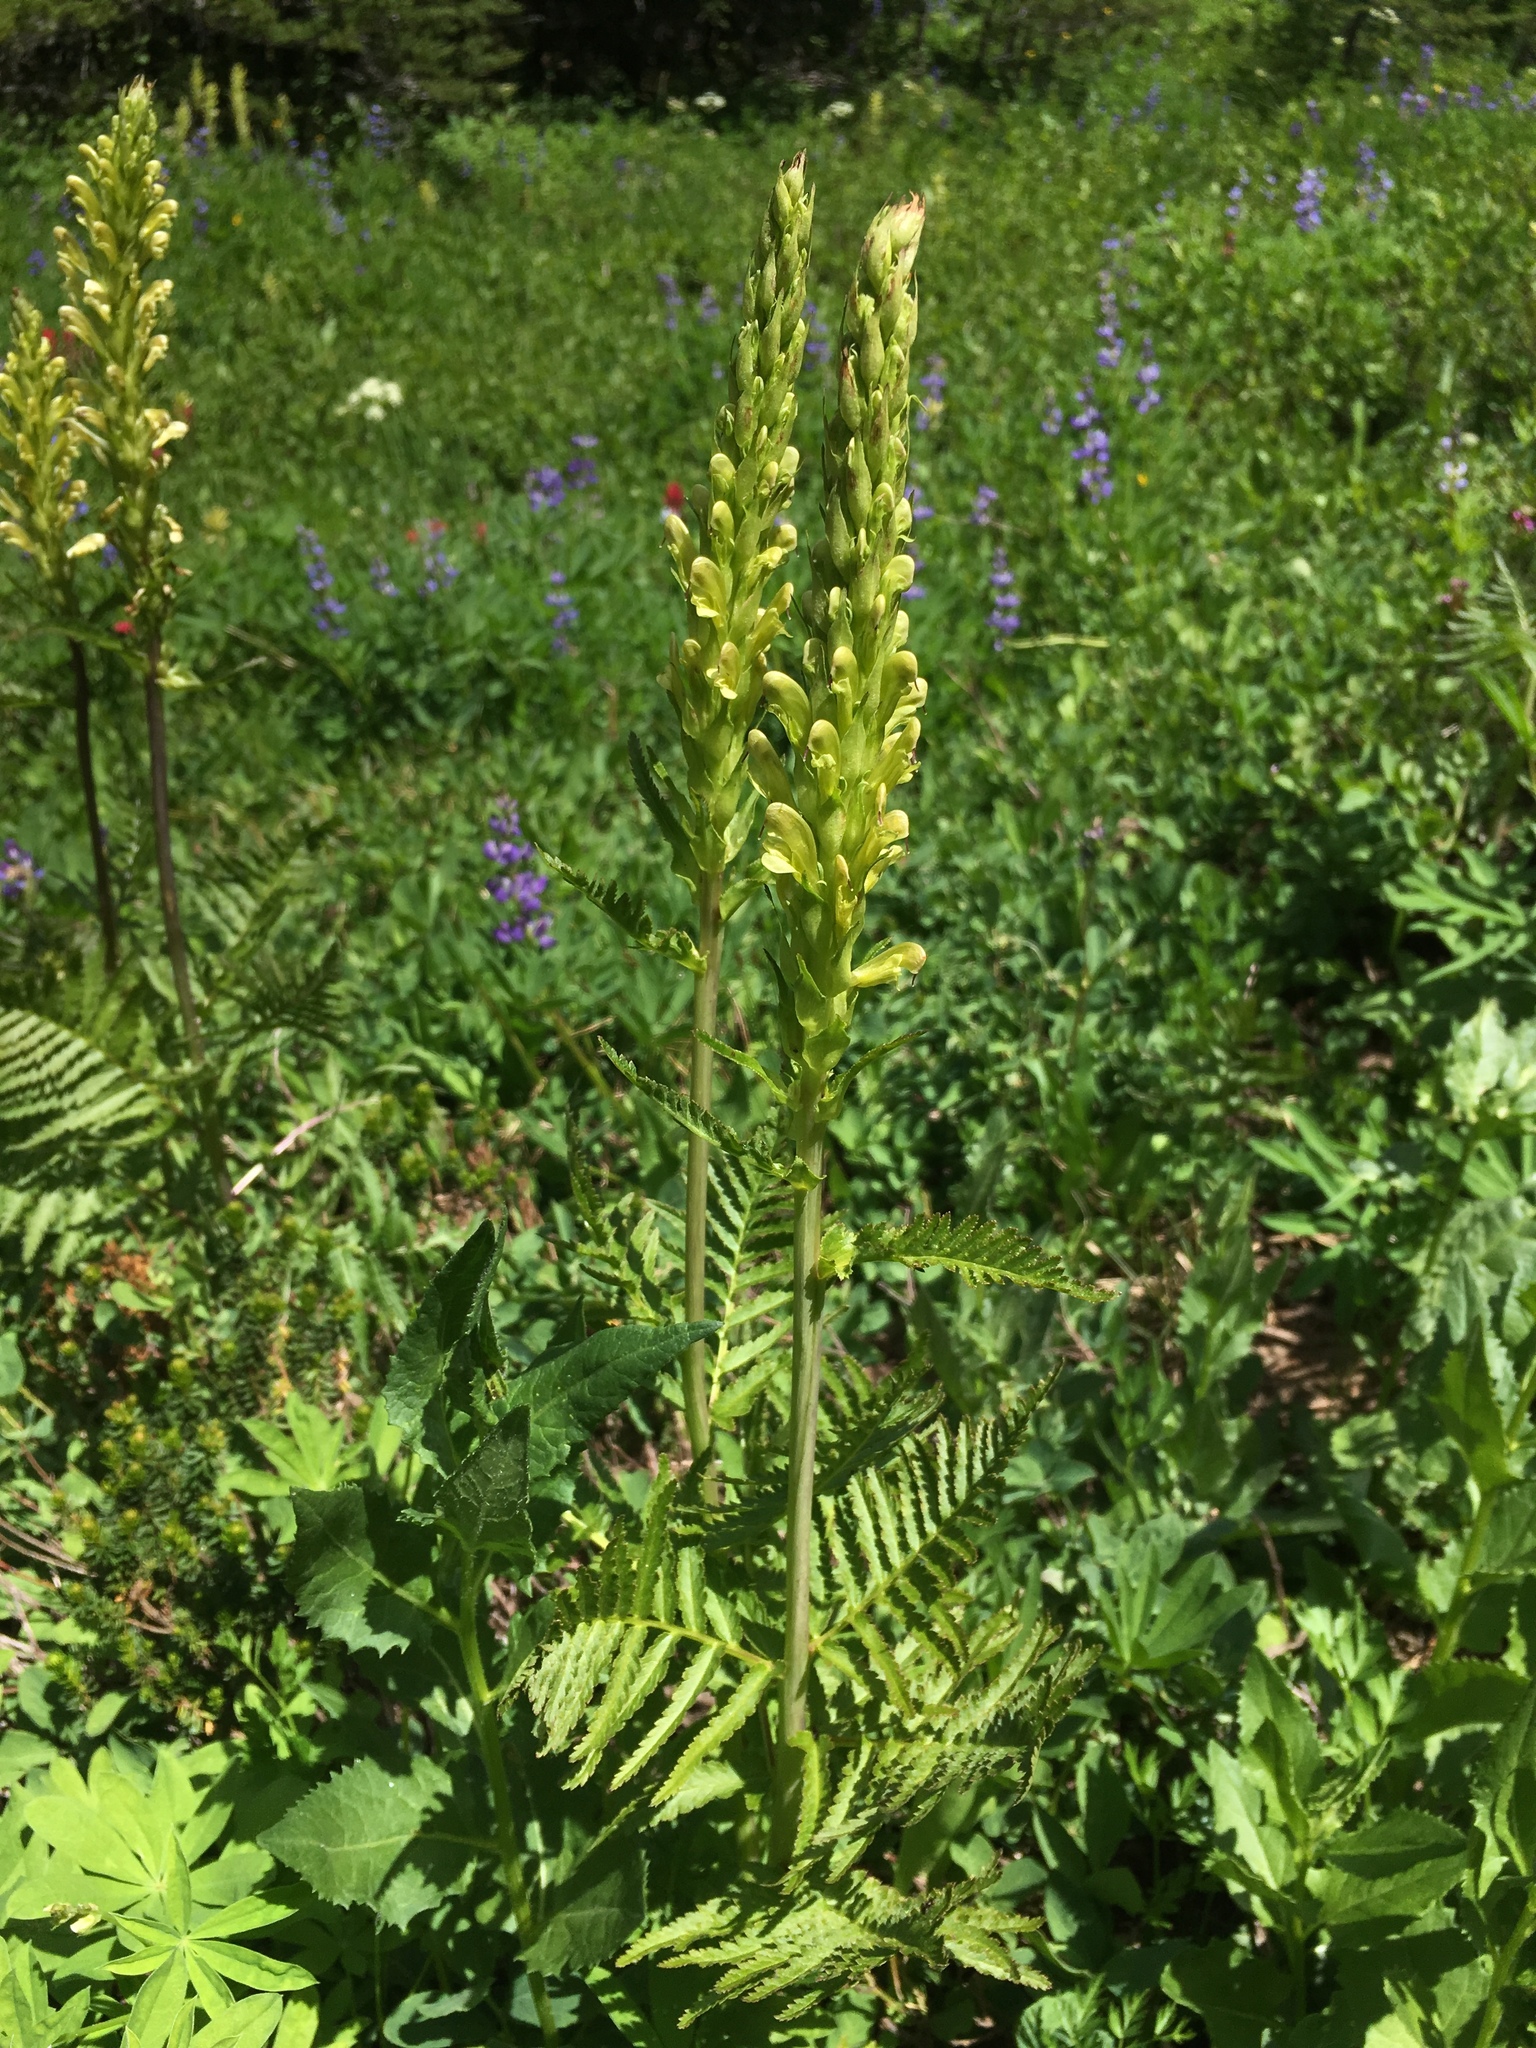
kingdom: Plantae
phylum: Tracheophyta
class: Magnoliopsida
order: Lamiales
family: Orobanchaceae
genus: Pedicularis
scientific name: Pedicularis bracteosa
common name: Bracted lousewort
